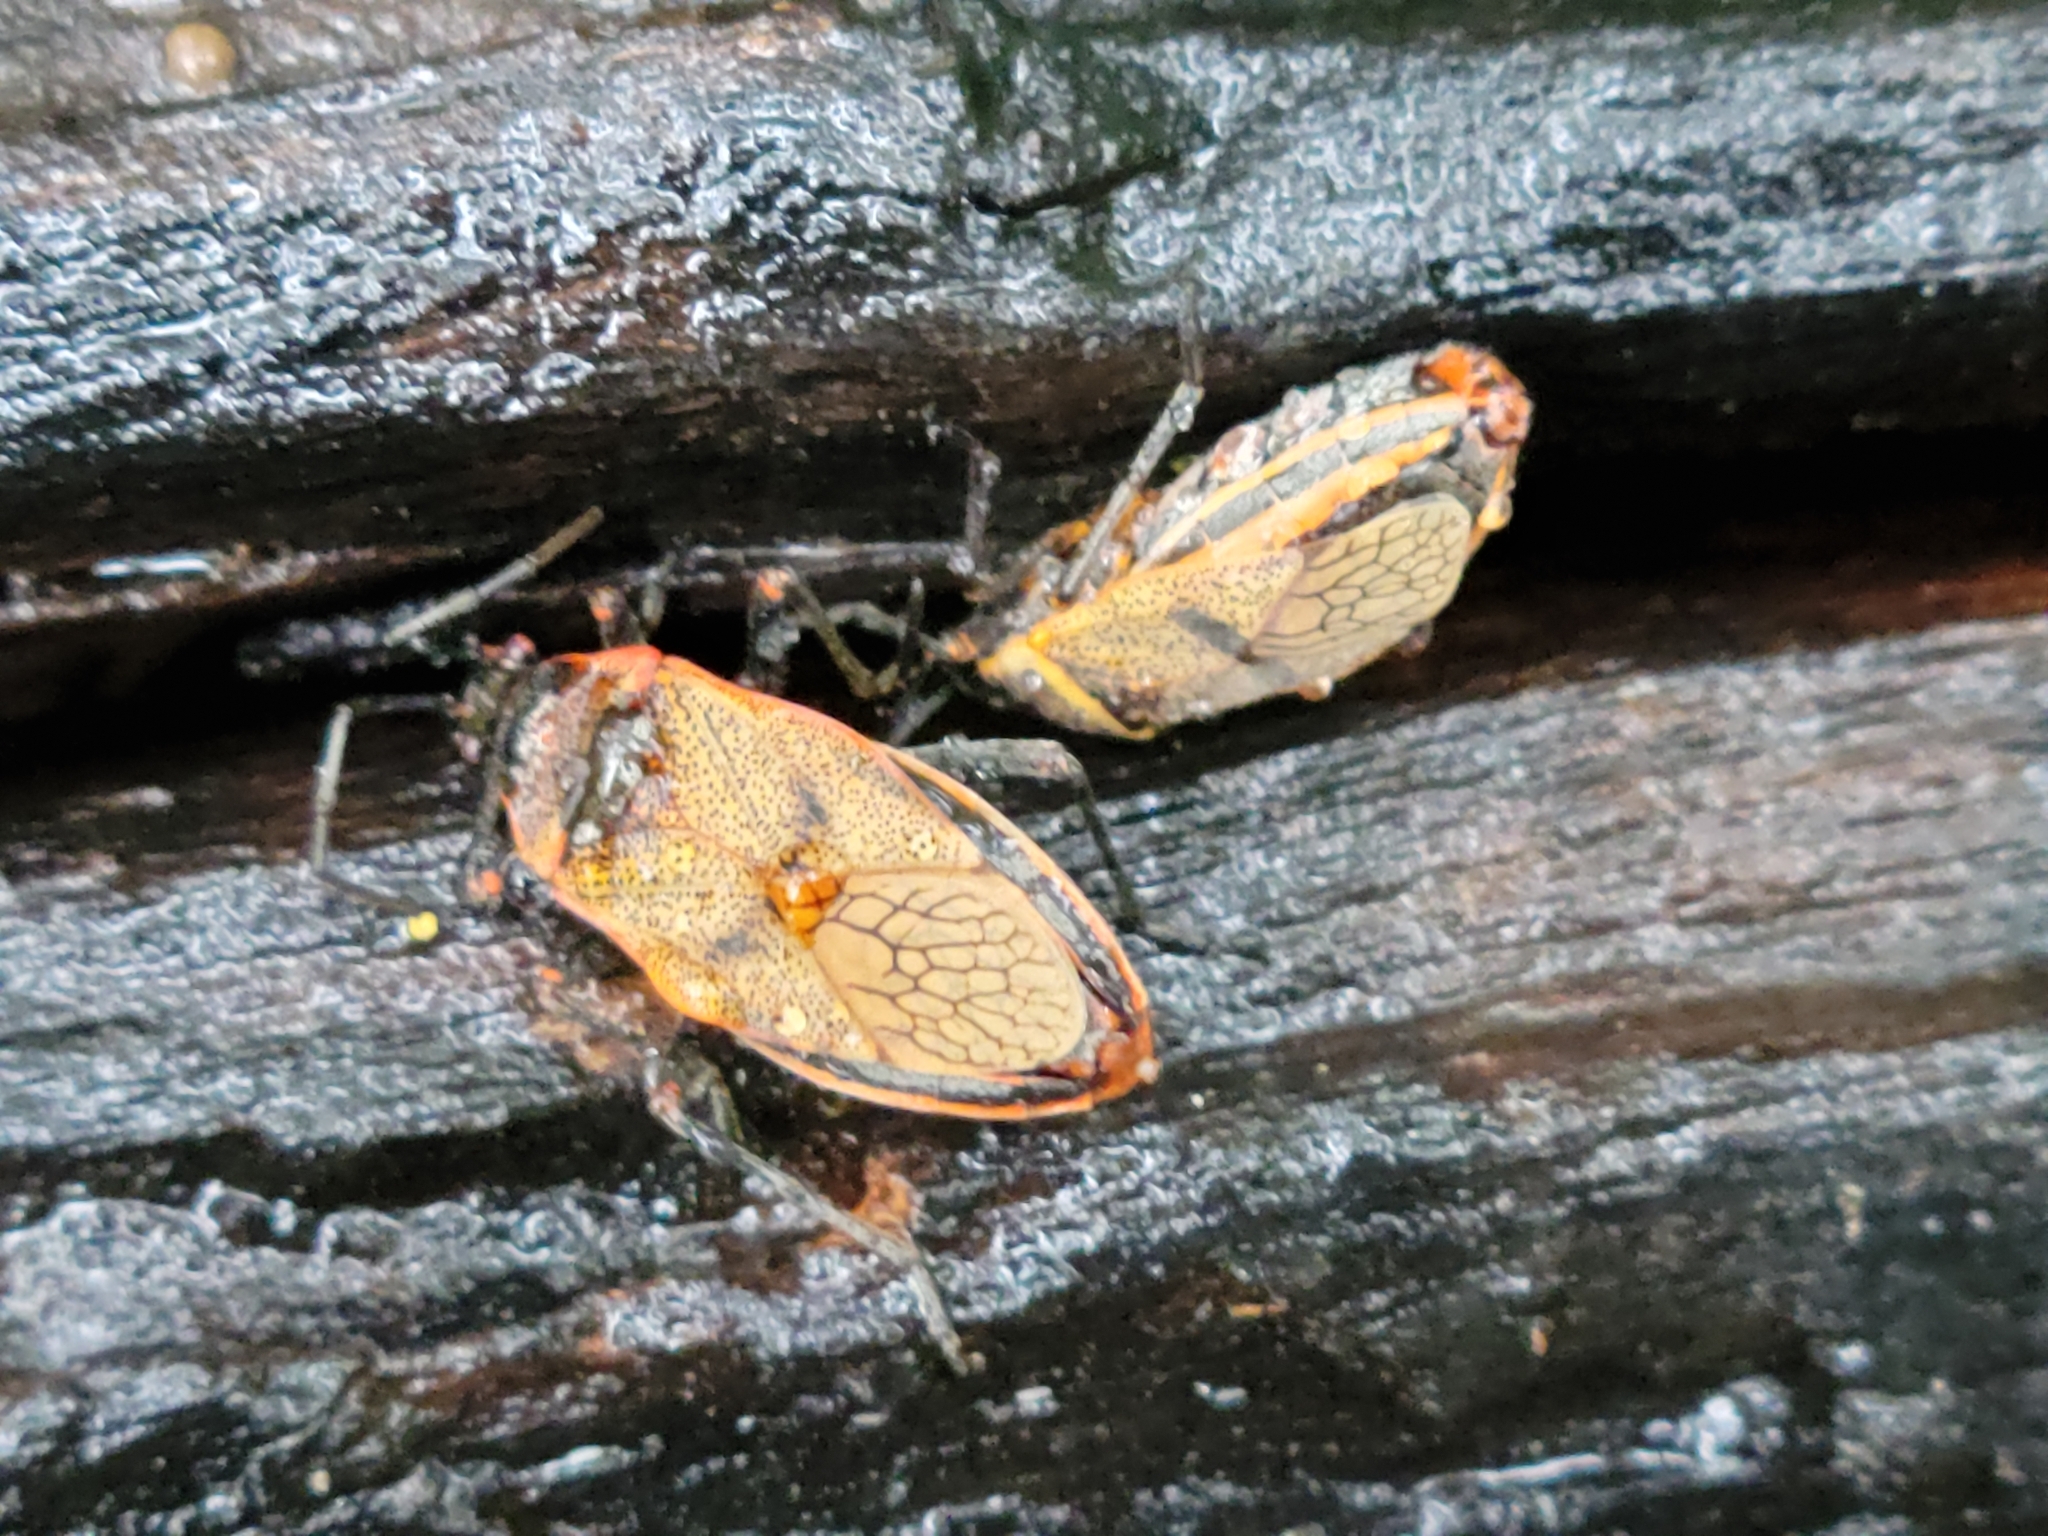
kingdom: Animalia
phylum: Arthropoda
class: Insecta
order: Hemiptera
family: Largidae
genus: Largus
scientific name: Largus maculatus
